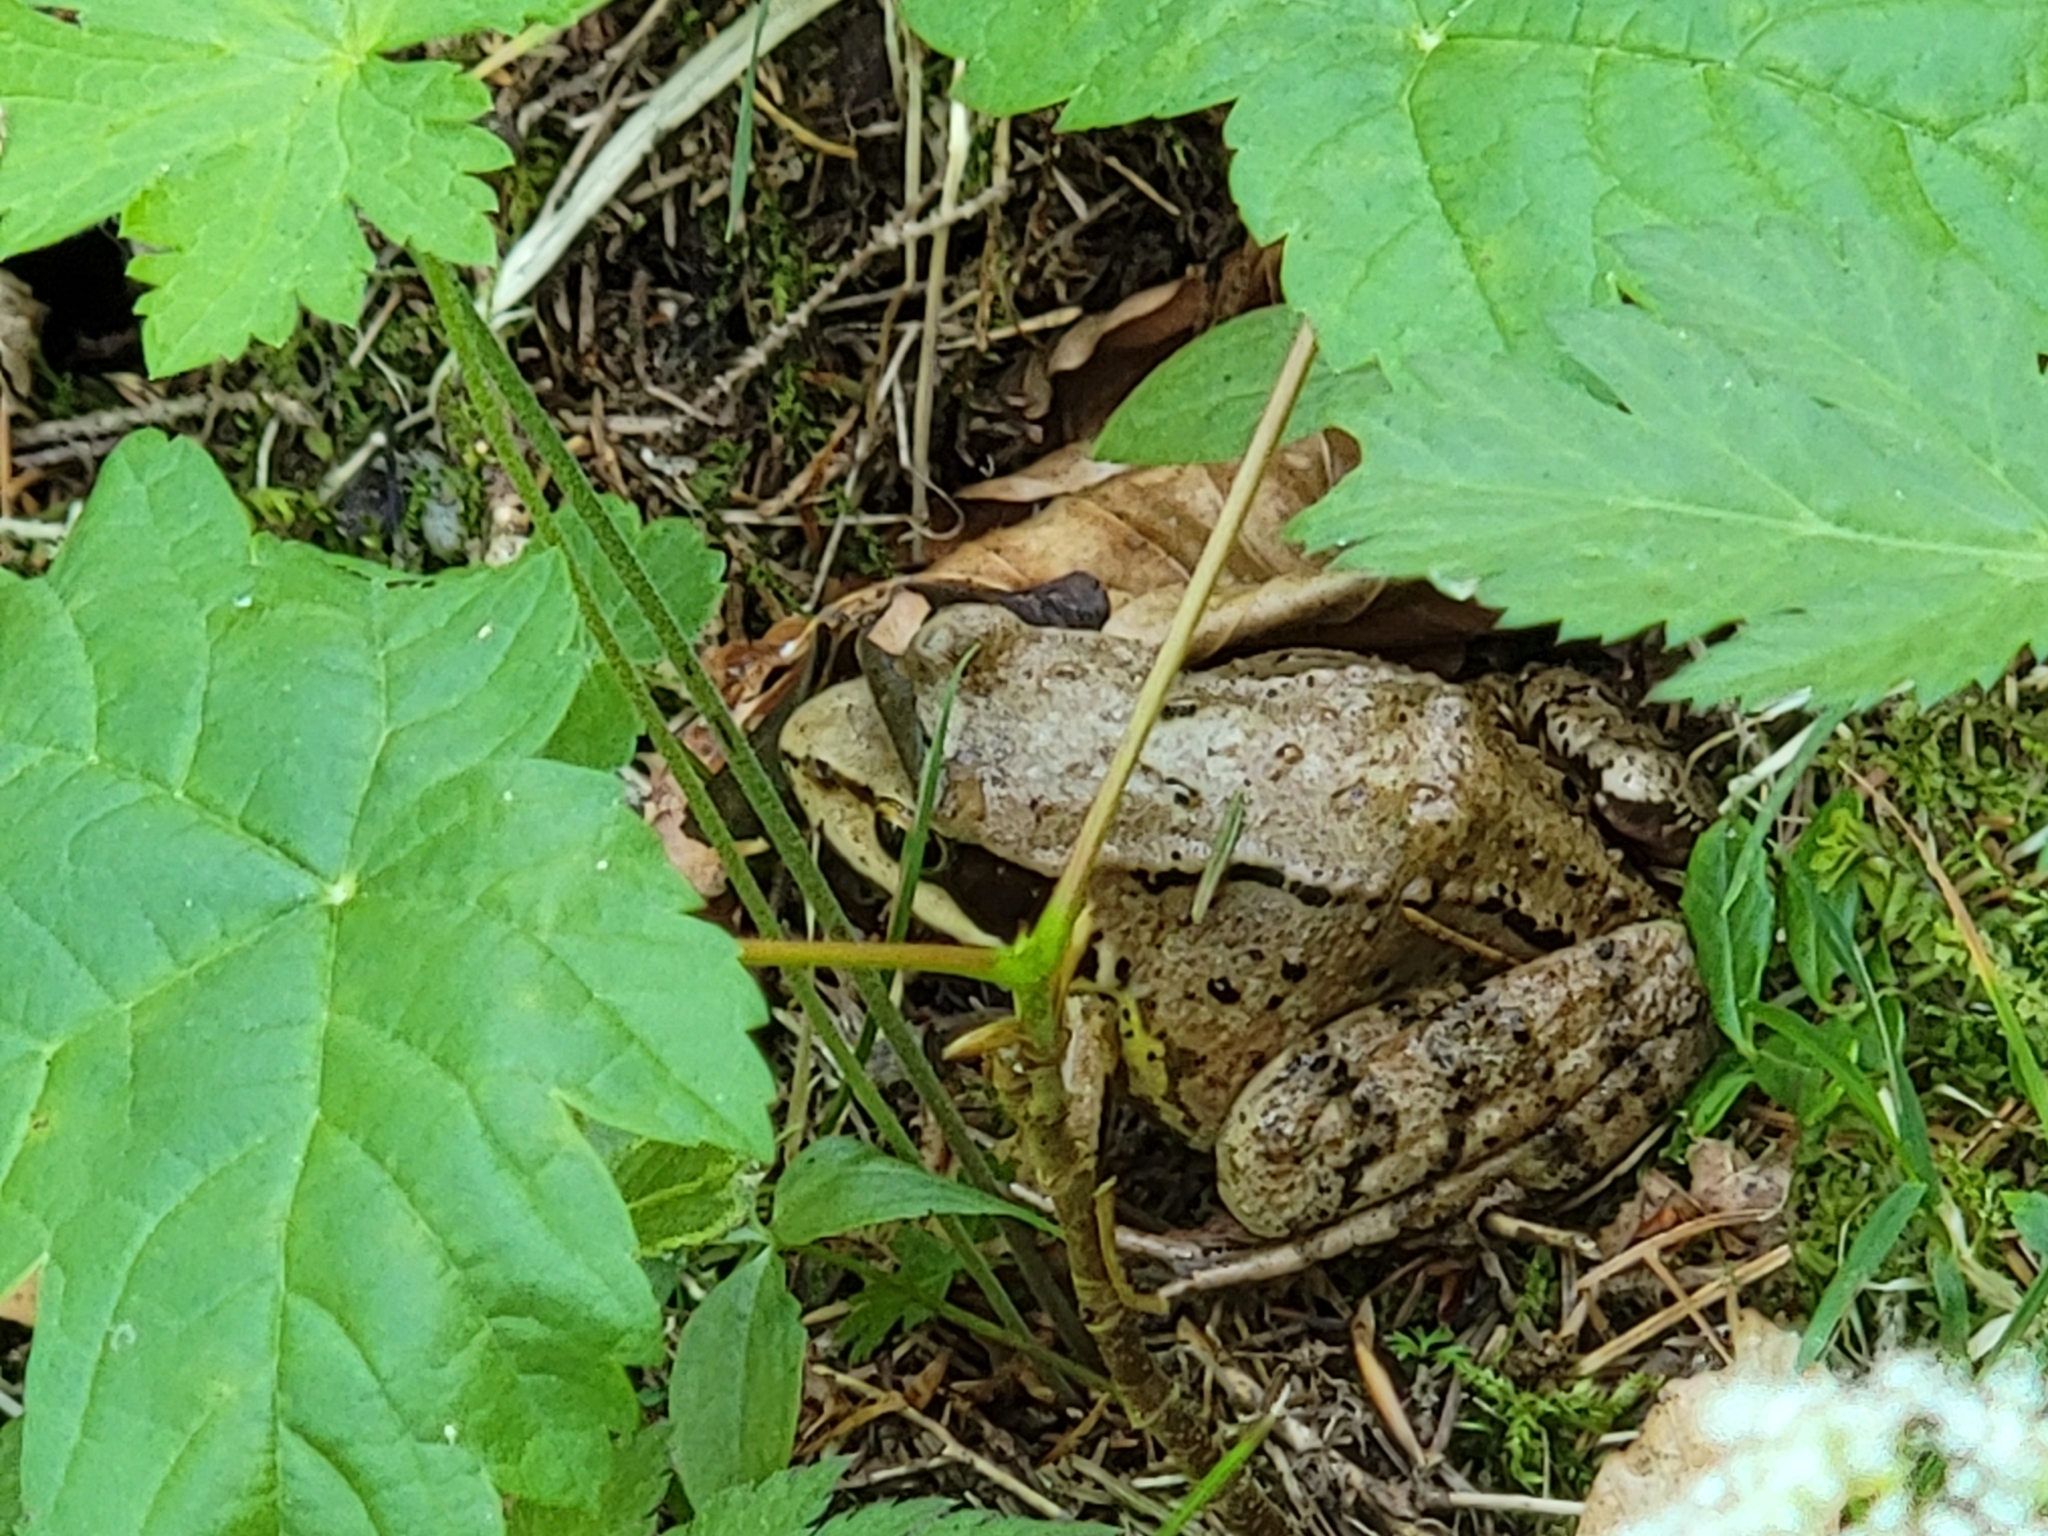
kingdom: Animalia
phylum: Chordata
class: Amphibia
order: Anura
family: Ranidae
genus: Rana
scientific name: Rana temporaria
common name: Common frog
